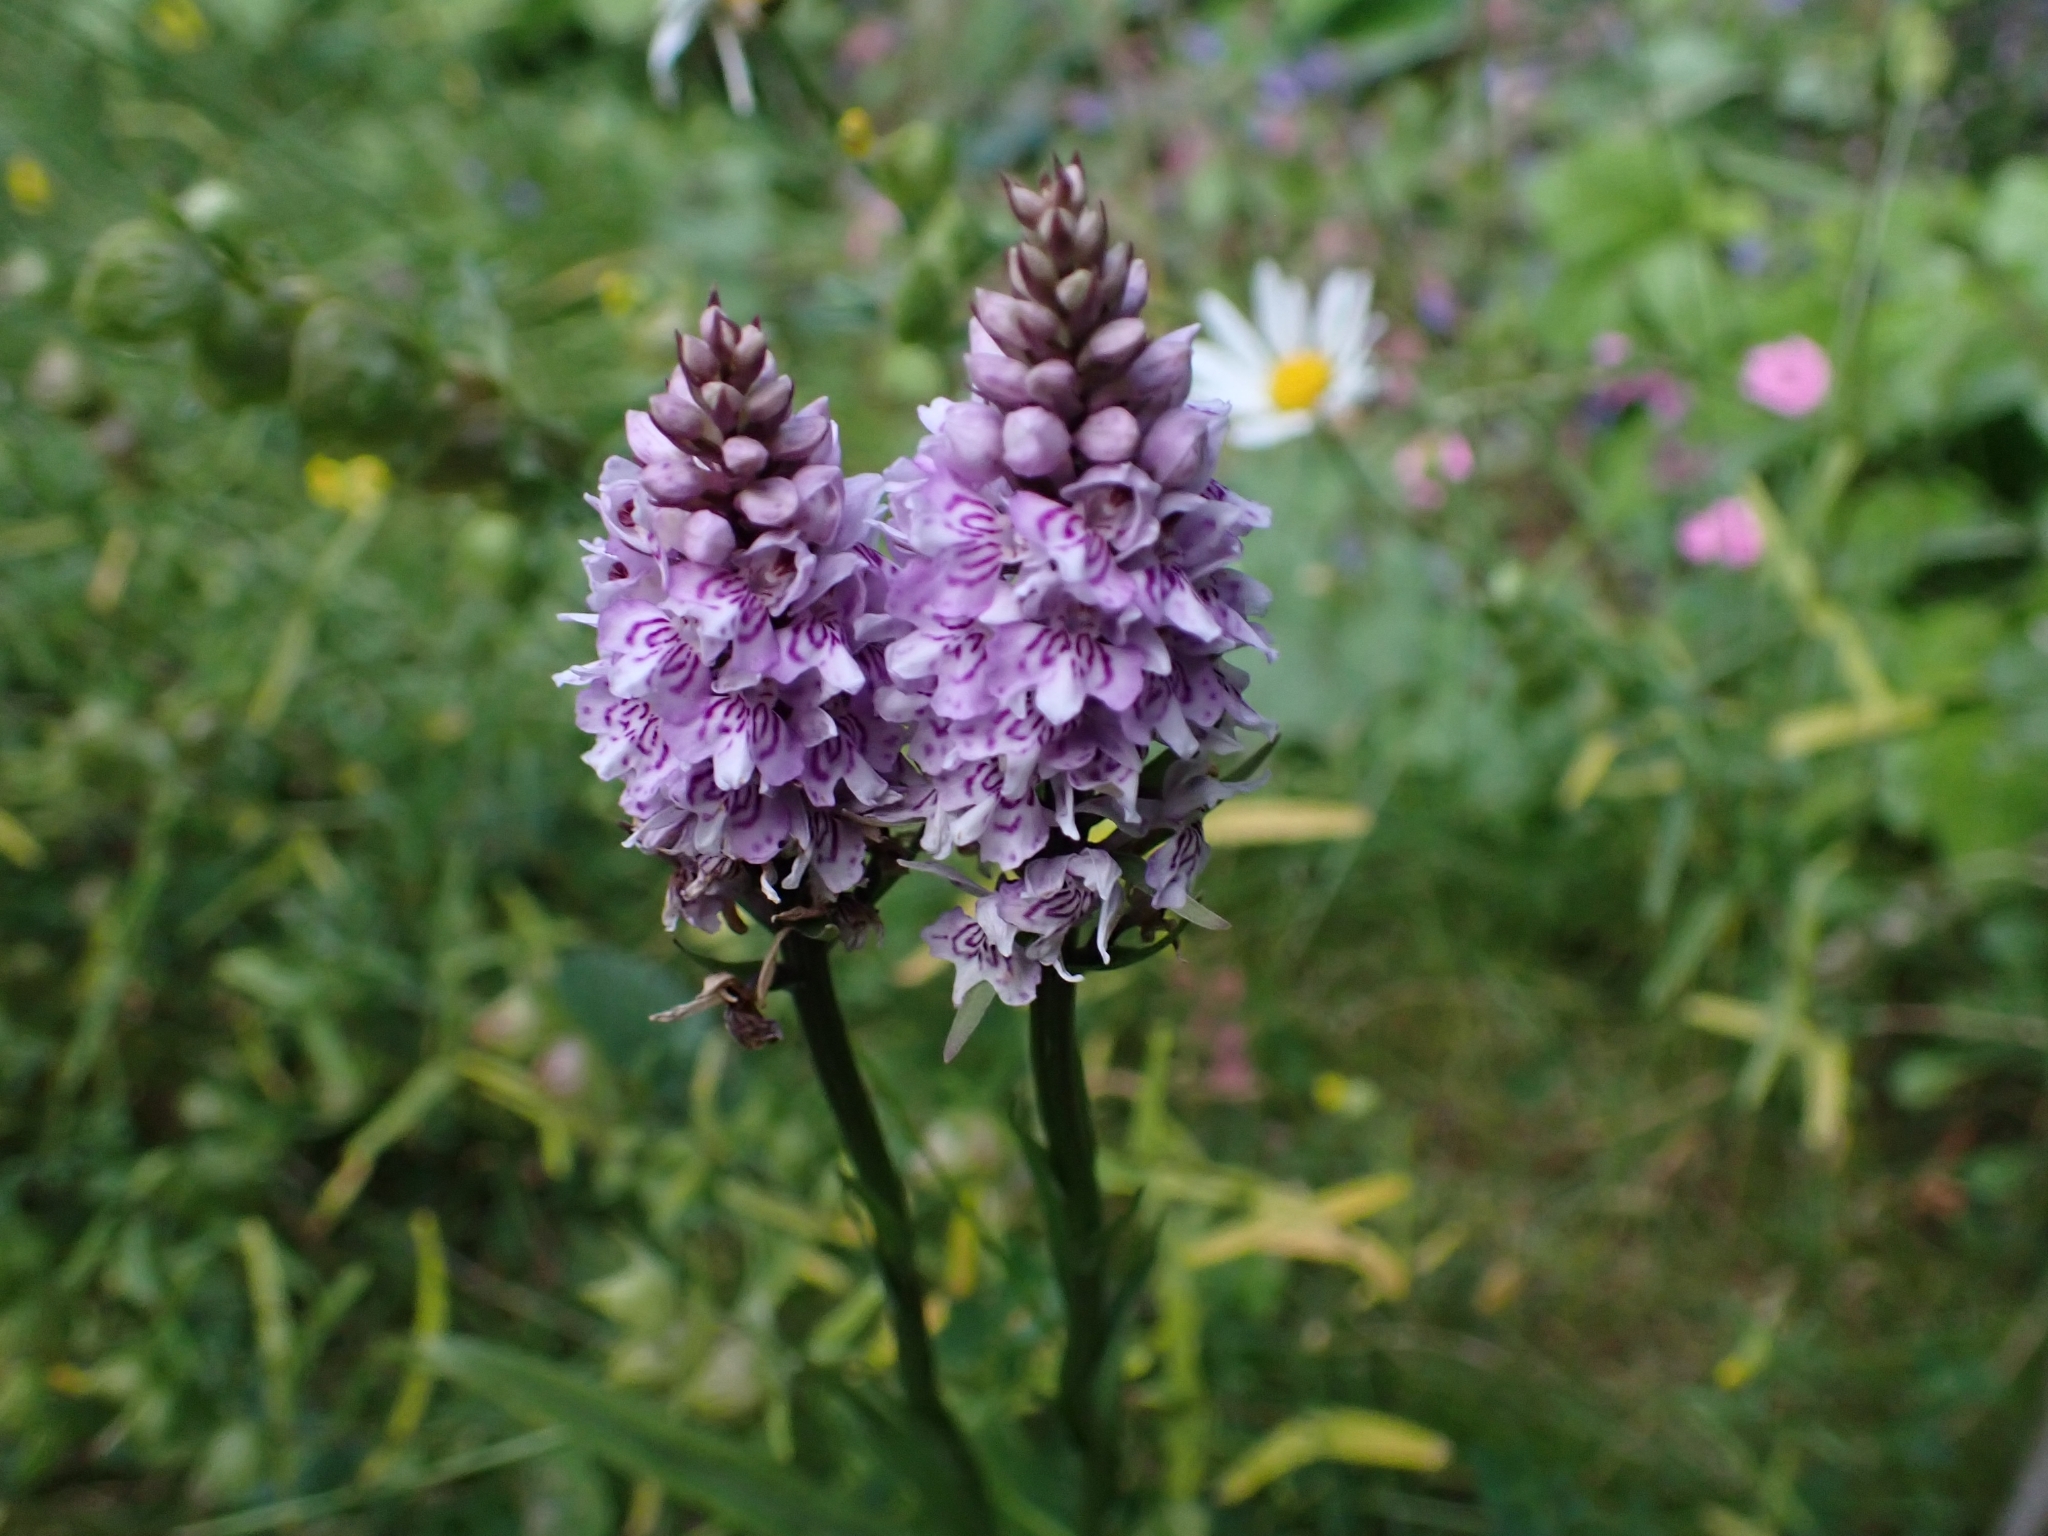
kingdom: Plantae
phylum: Tracheophyta
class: Liliopsida
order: Asparagales
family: Orchidaceae
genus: Dactylorhiza
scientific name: Dactylorhiza maculata
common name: Heath spotted-orchid
